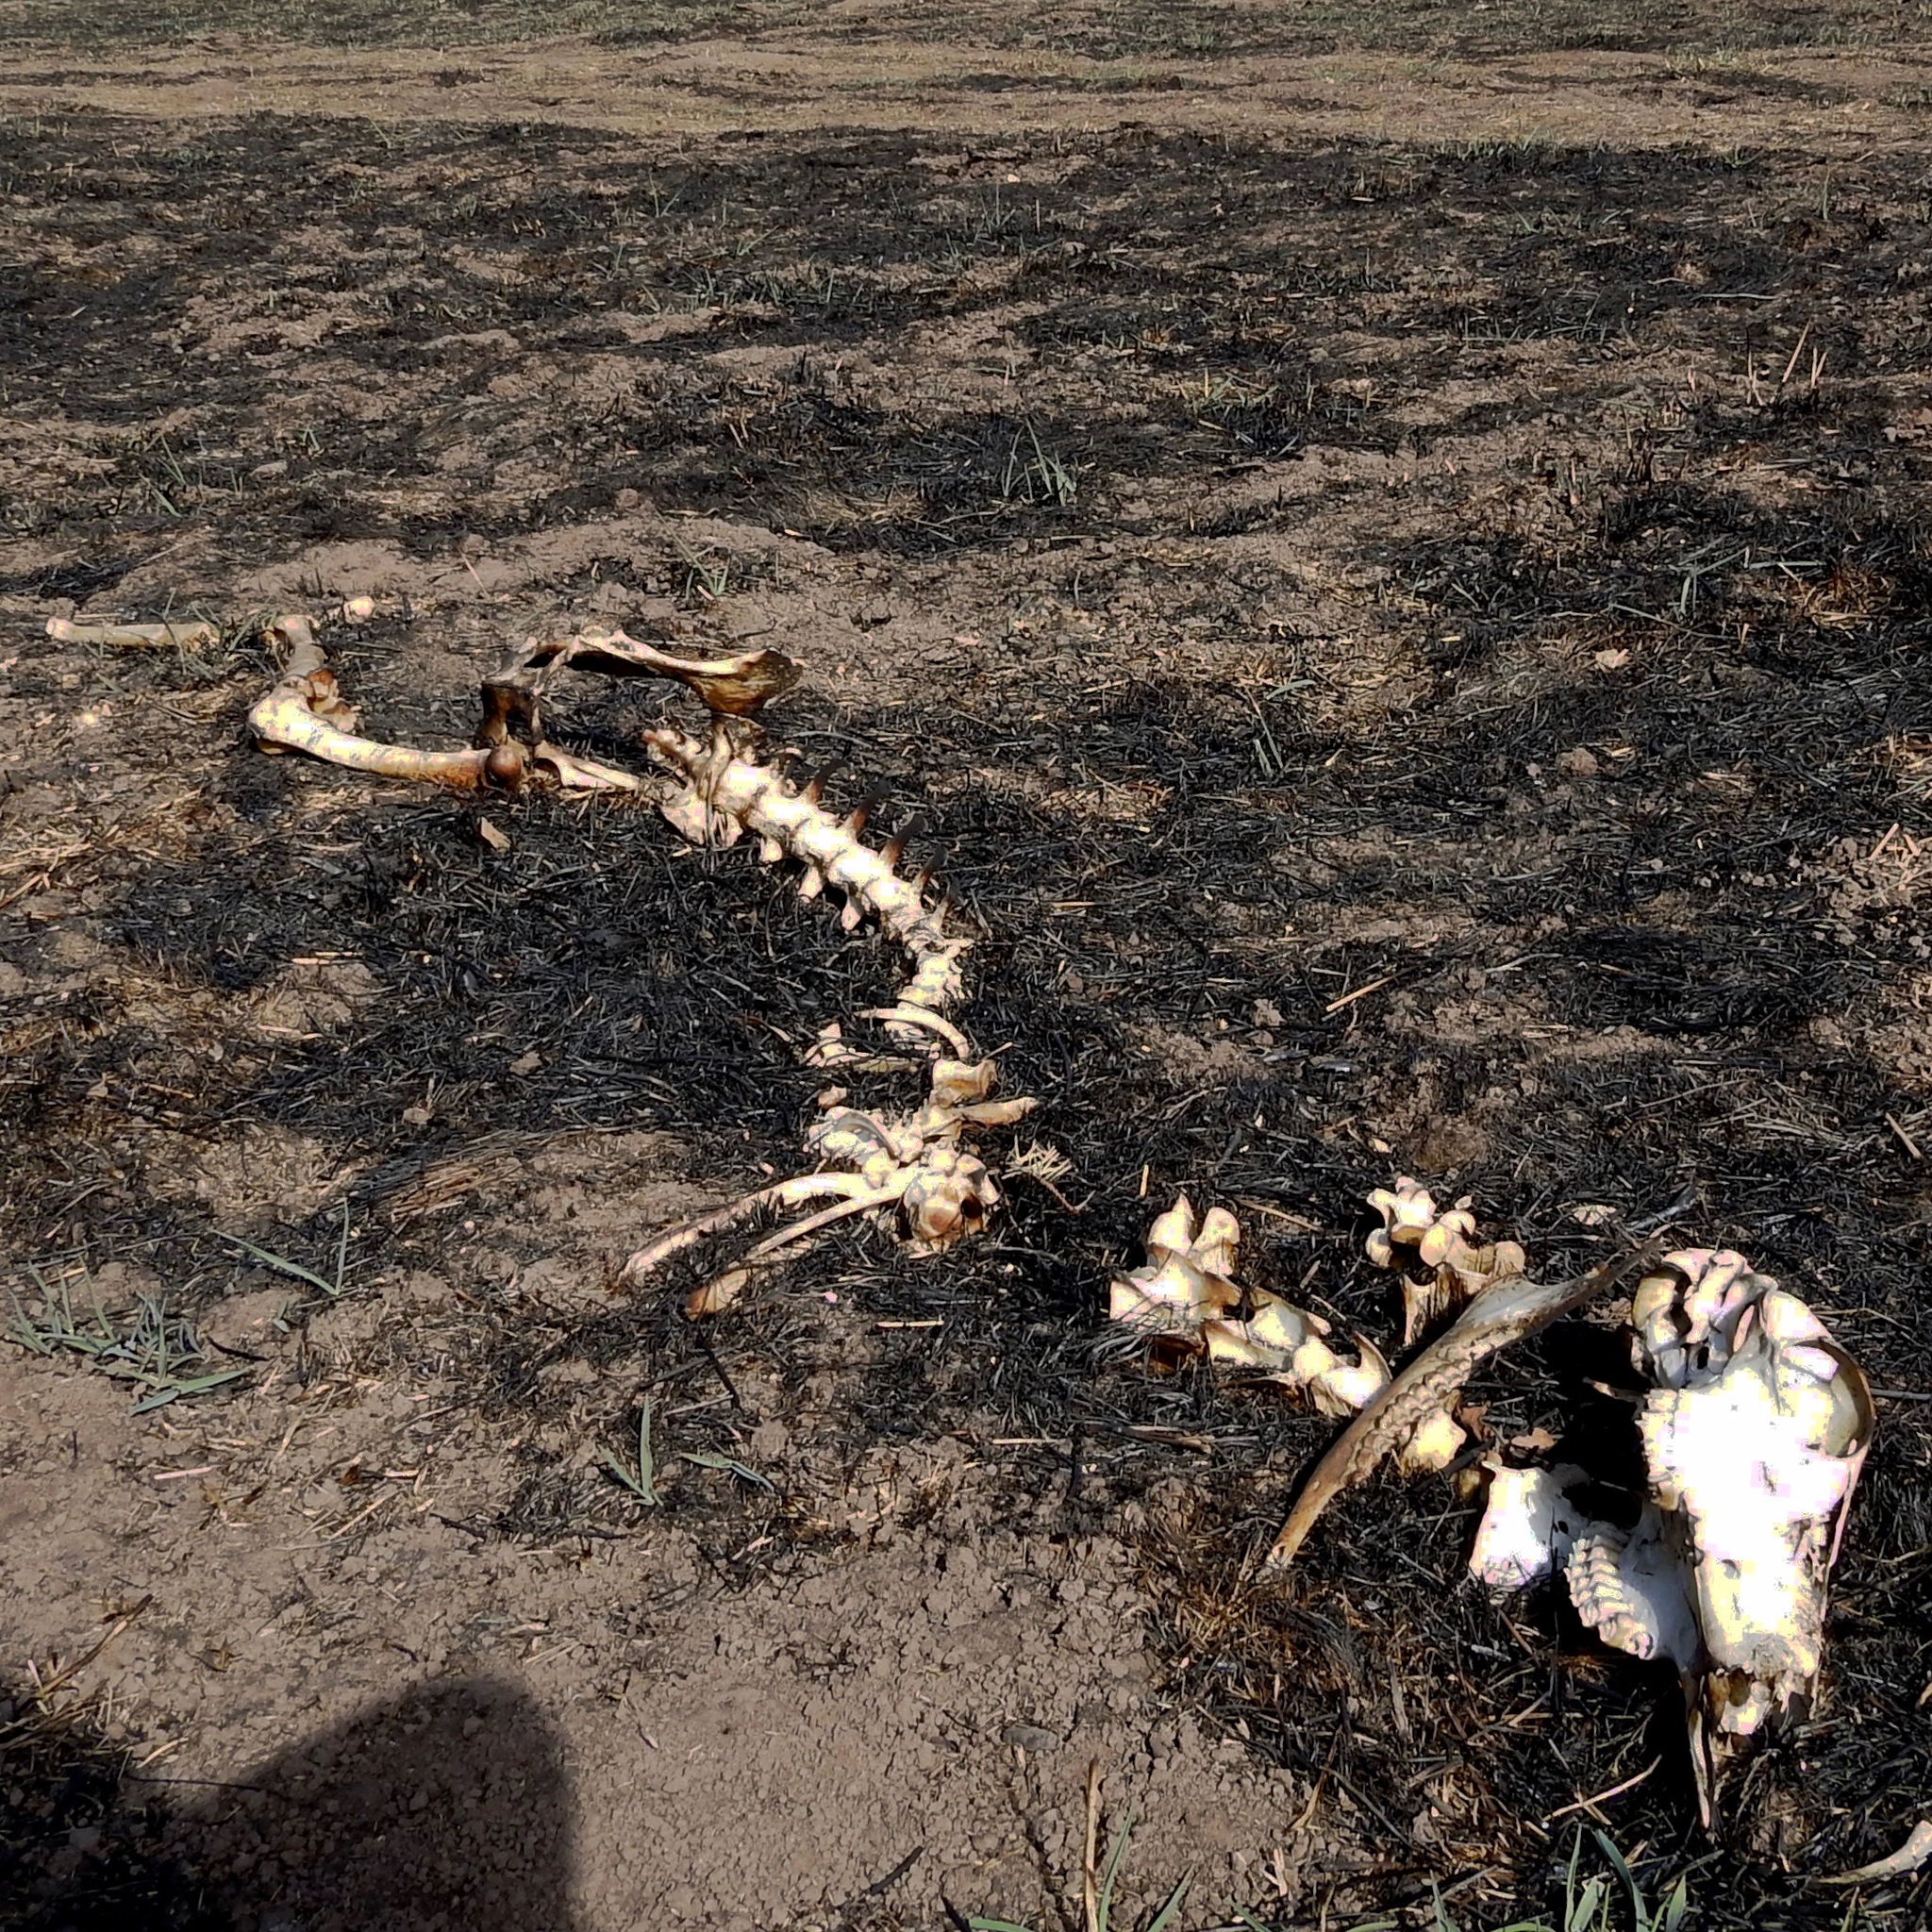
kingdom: Animalia
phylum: Chordata
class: Mammalia
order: Artiodactyla
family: Cervidae
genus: Odocoileus
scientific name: Odocoileus hemionus
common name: Mule deer
